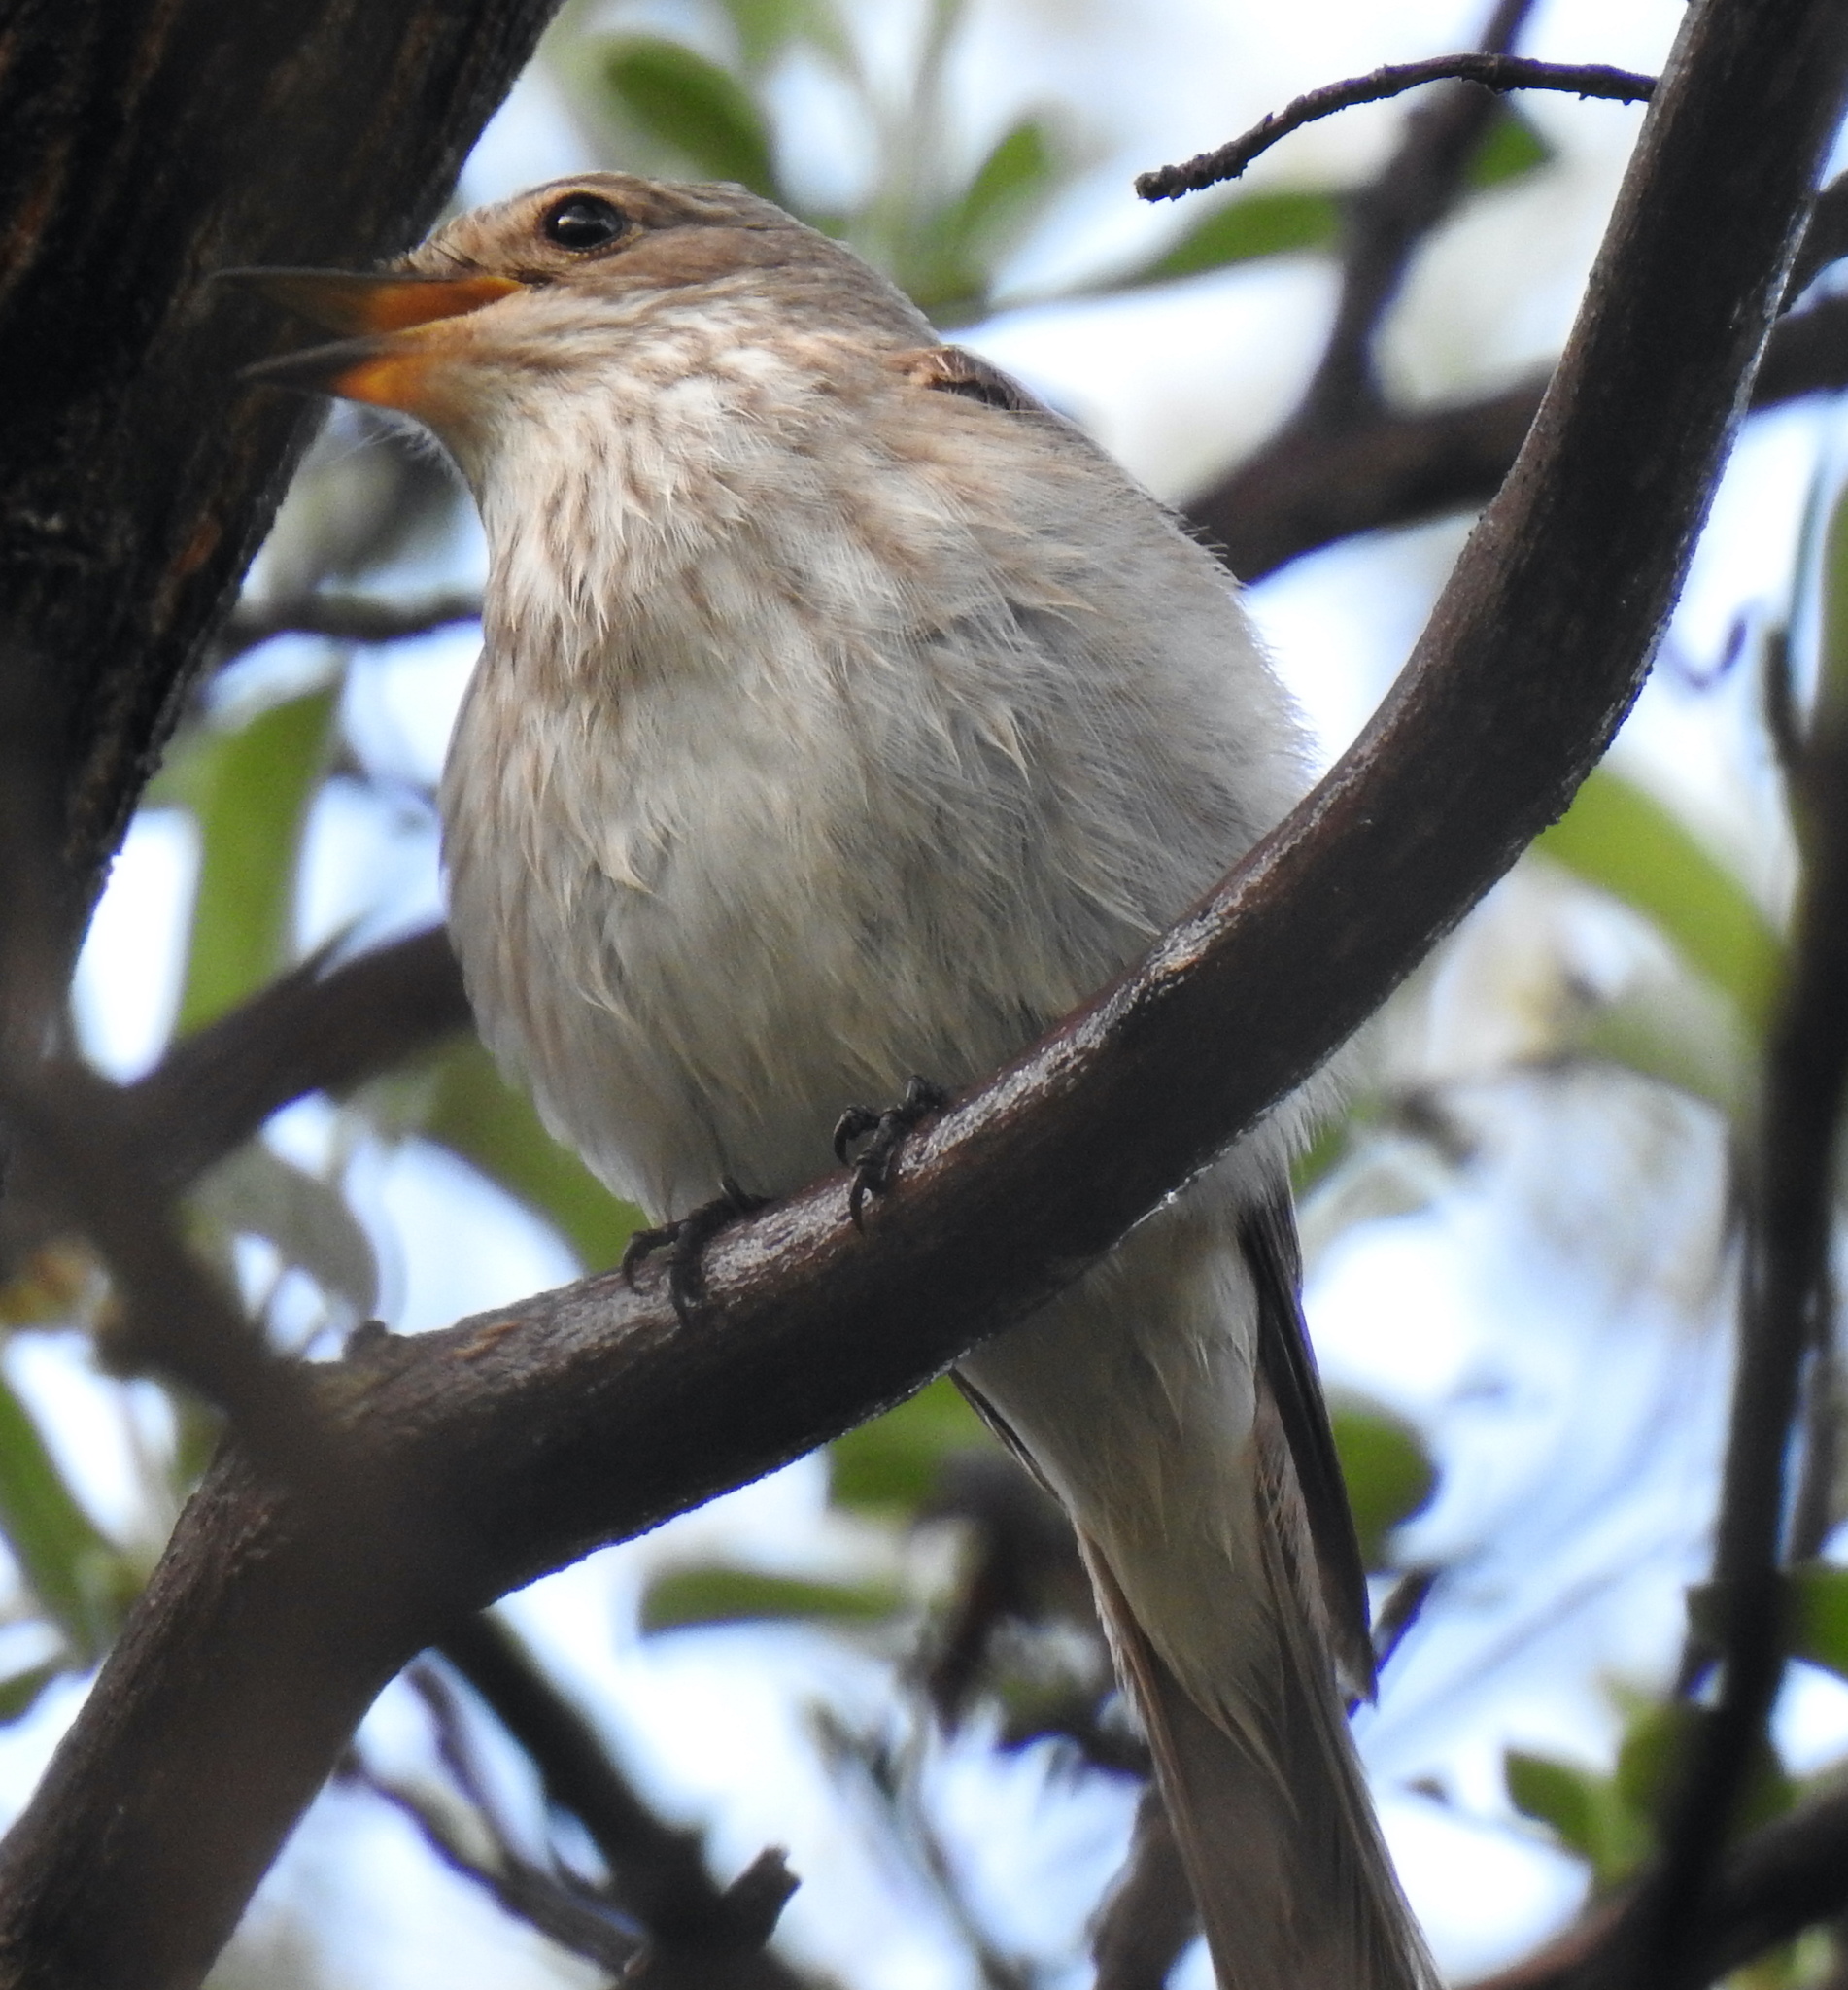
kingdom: Animalia
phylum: Chordata
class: Aves
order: Passeriformes
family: Muscicapidae
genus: Muscicapa
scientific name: Muscicapa striata
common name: Spotted flycatcher
